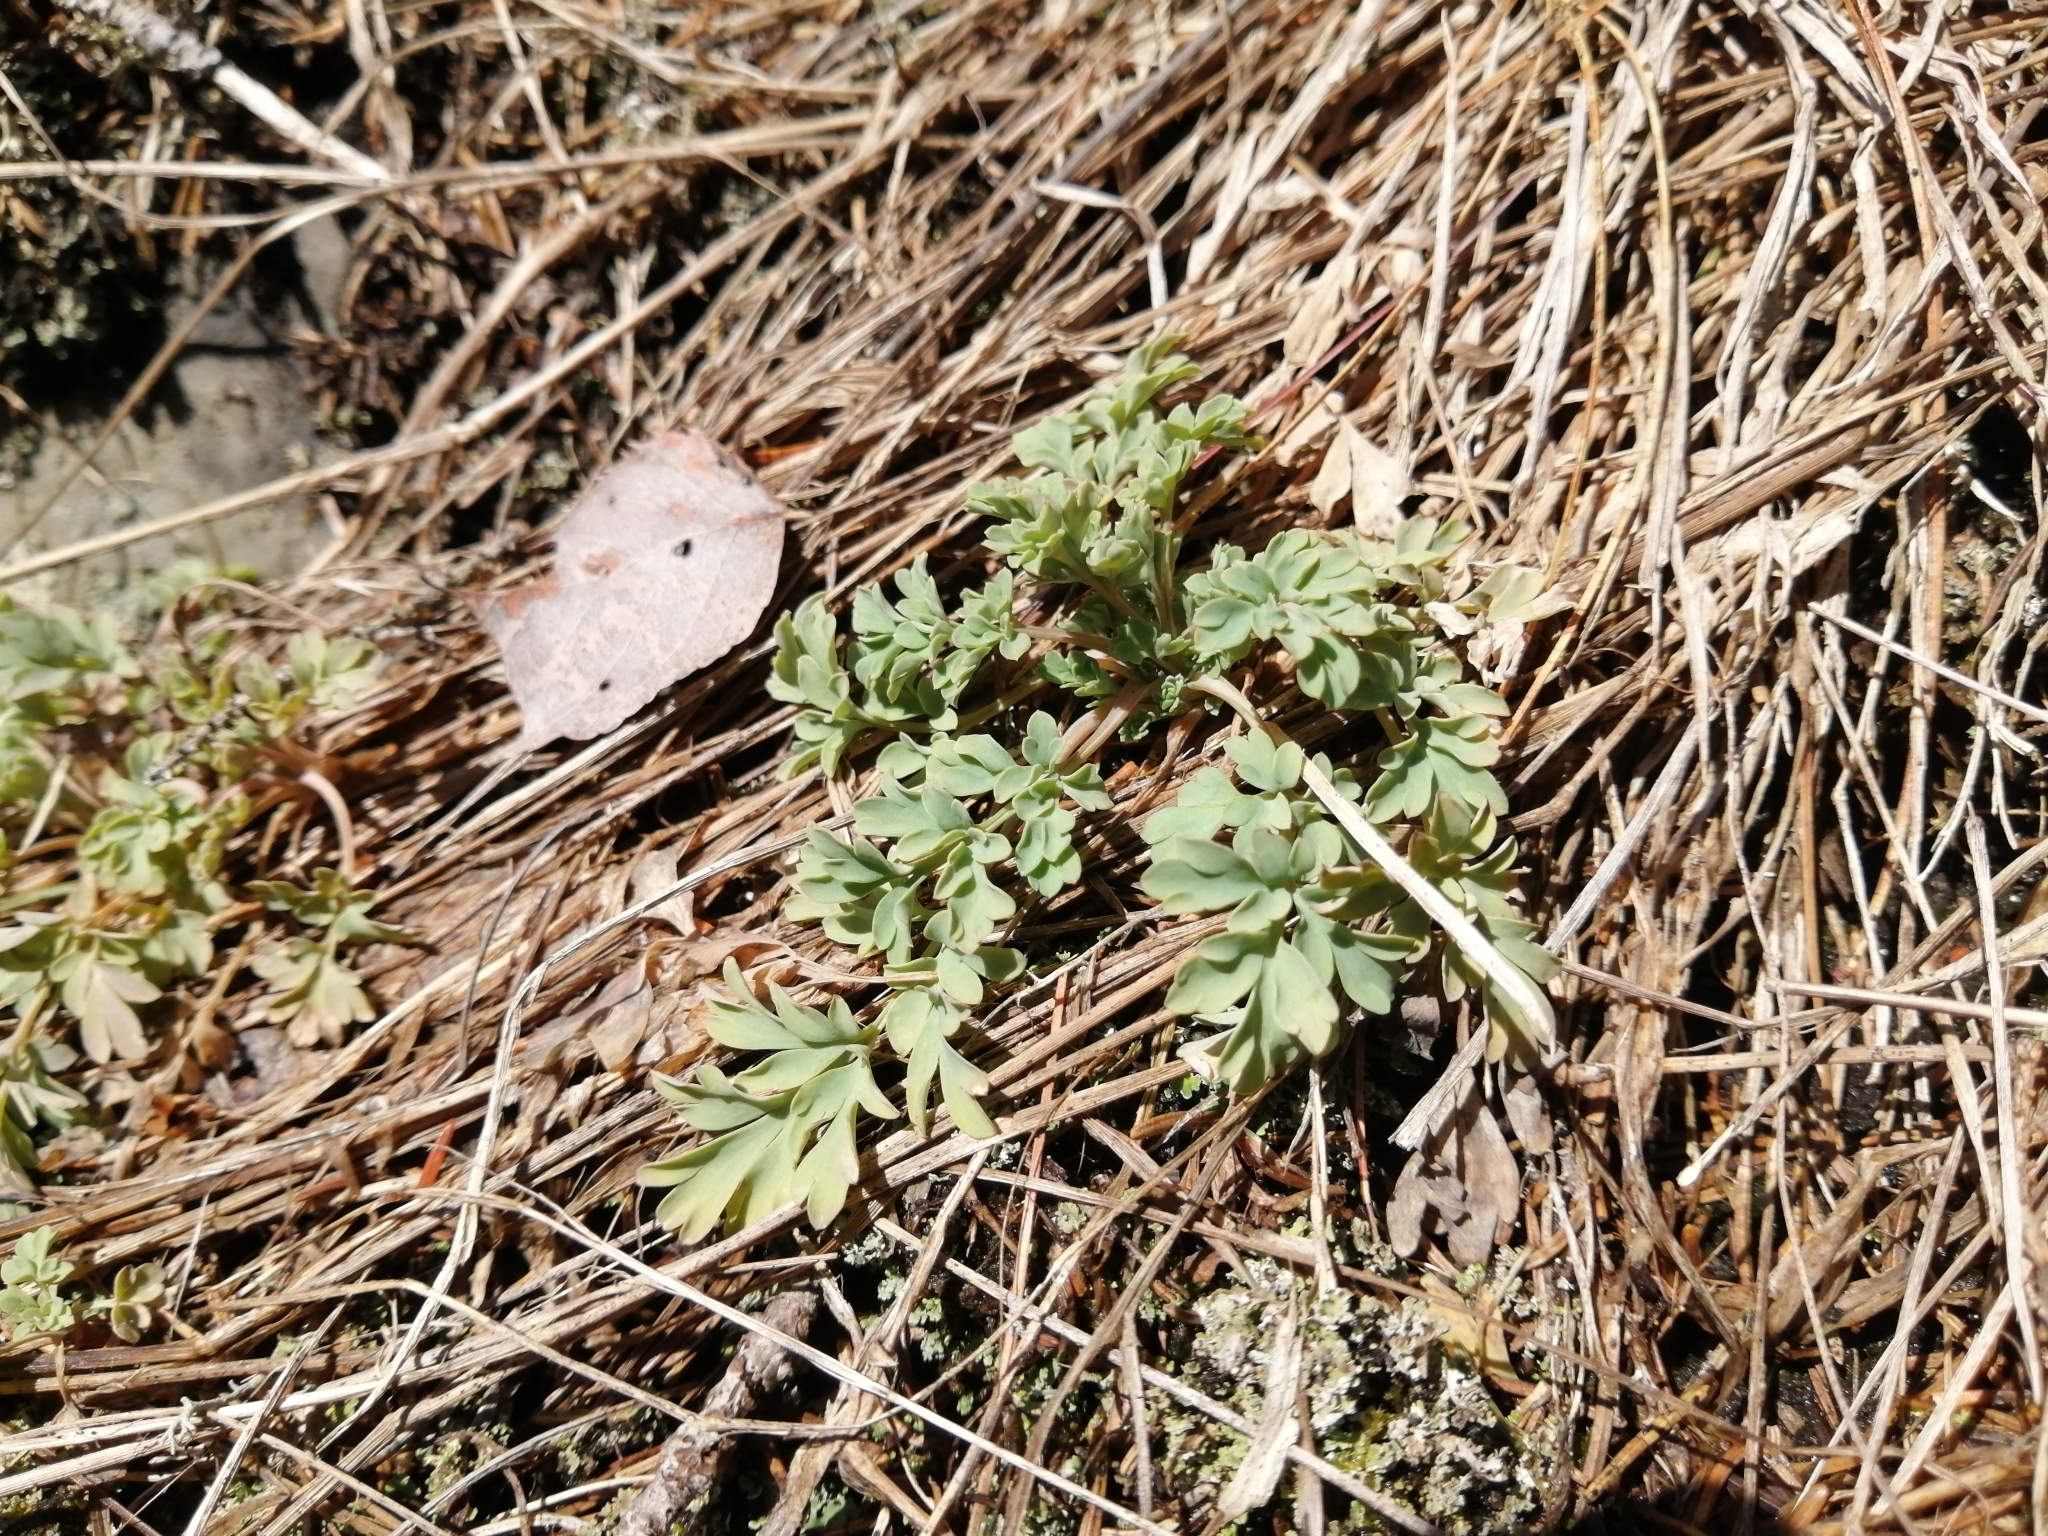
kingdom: Plantae
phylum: Tracheophyta
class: Magnoliopsida
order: Ranunculales
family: Papaveraceae
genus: Capnoides
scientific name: Capnoides sempervirens
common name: Rock harlequin
